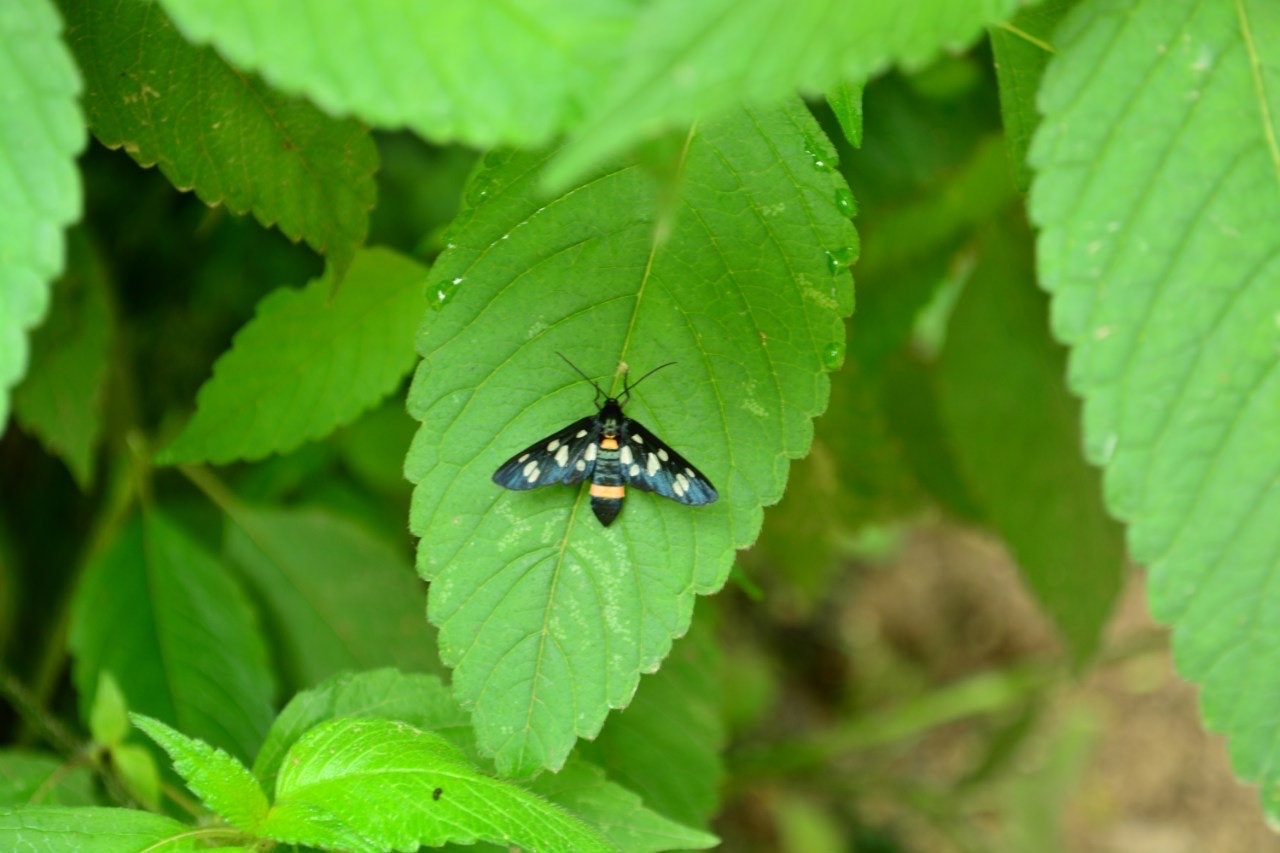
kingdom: Animalia
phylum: Arthropoda
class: Insecta
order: Lepidoptera
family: Erebidae
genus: Amata
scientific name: Amata nigricornis
